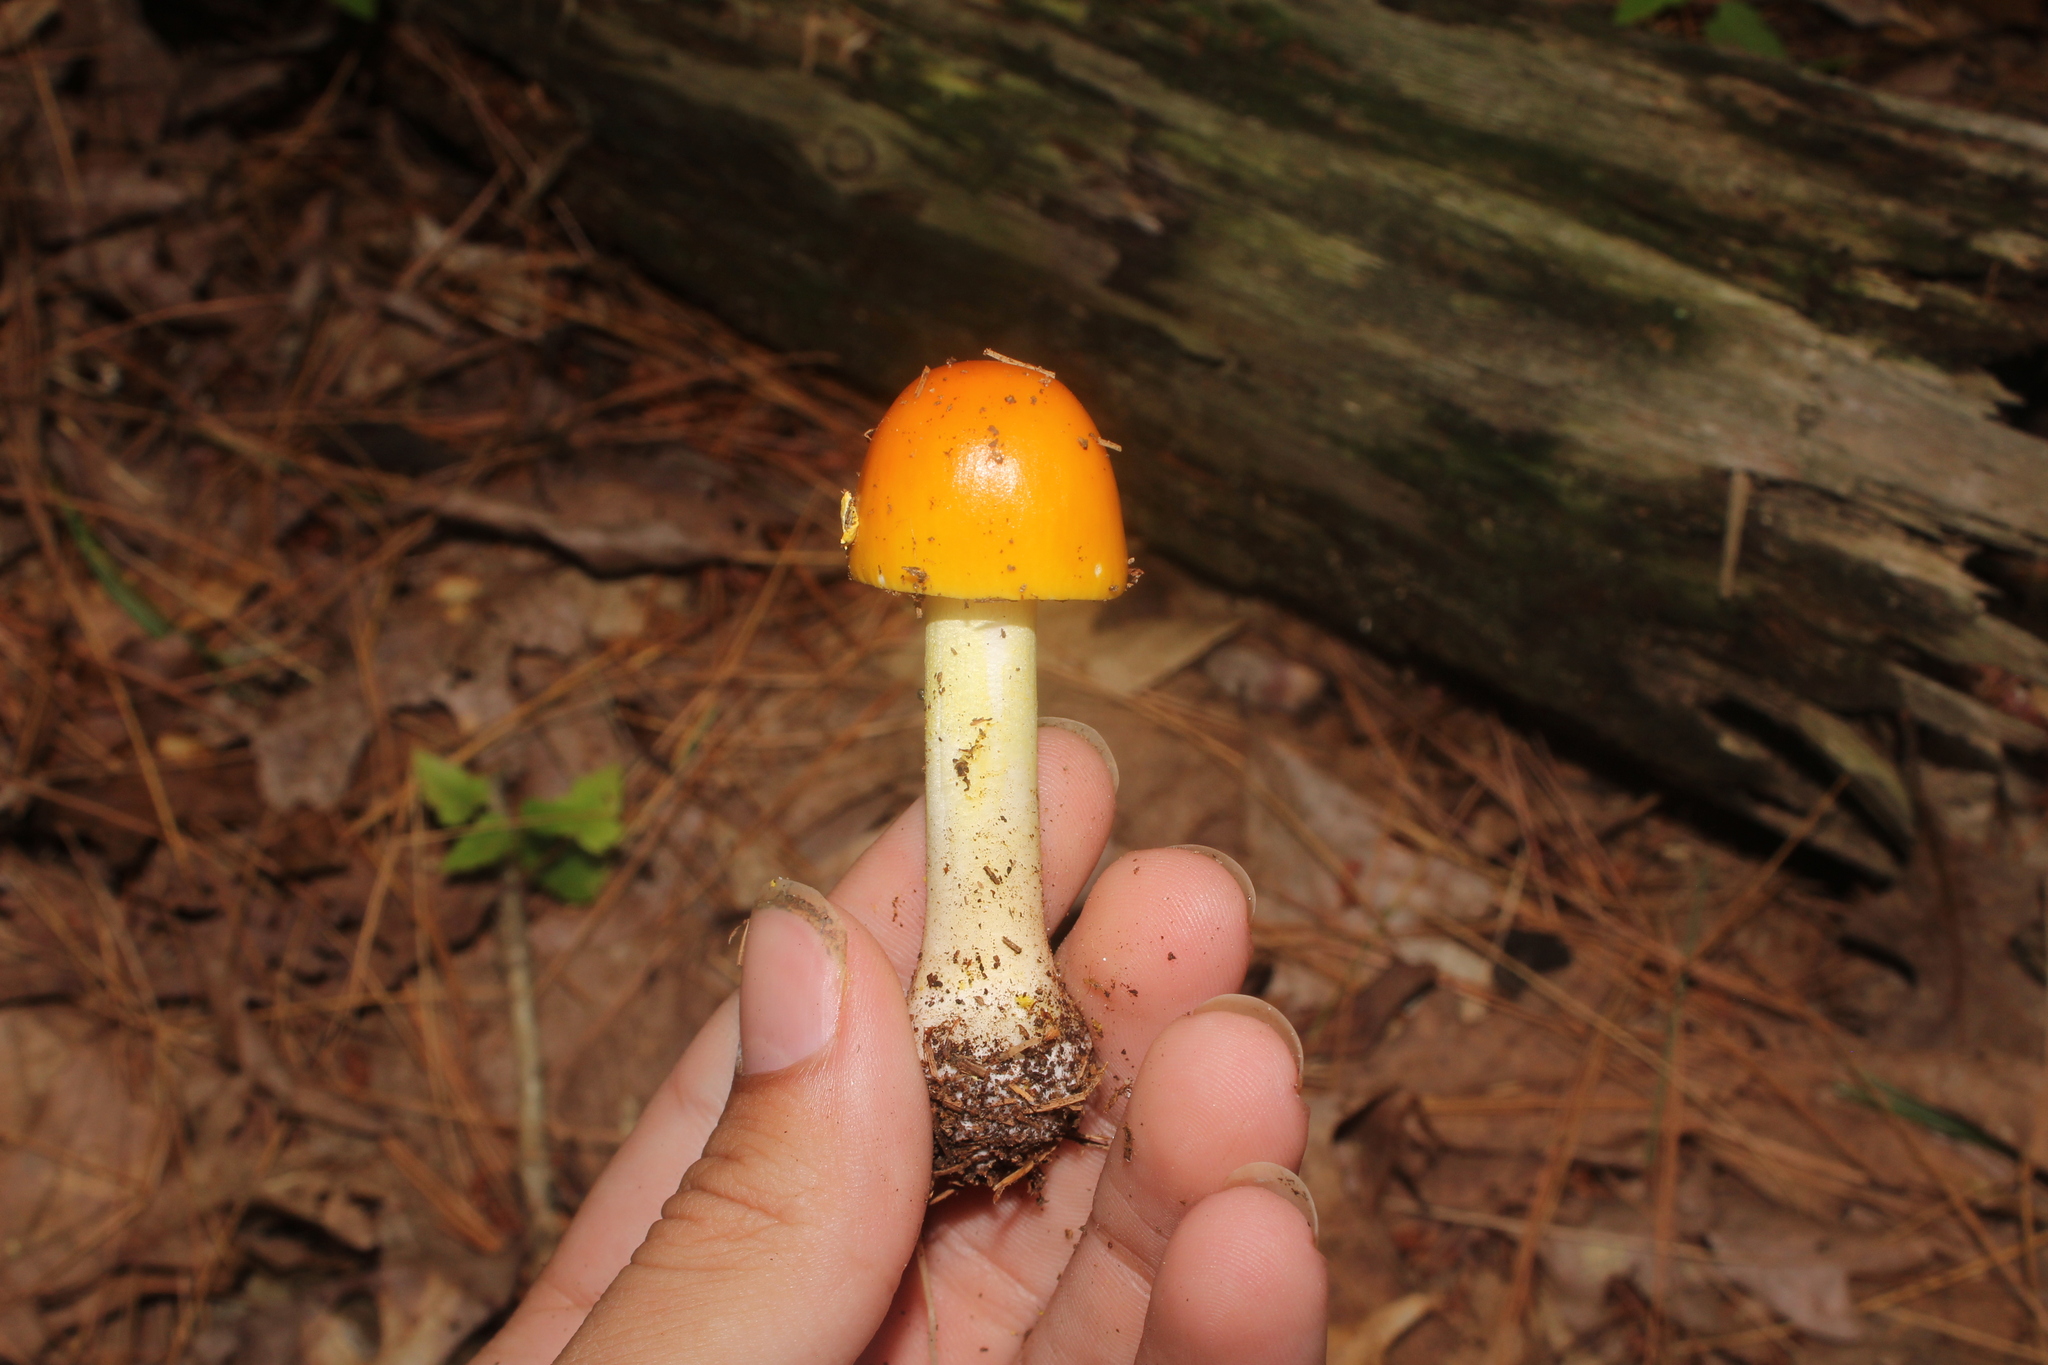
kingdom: Fungi
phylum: Basidiomycota
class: Agaricomycetes
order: Agaricales
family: Amanitaceae
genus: Amanita
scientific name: Amanita flavoconia
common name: Yellow patches
